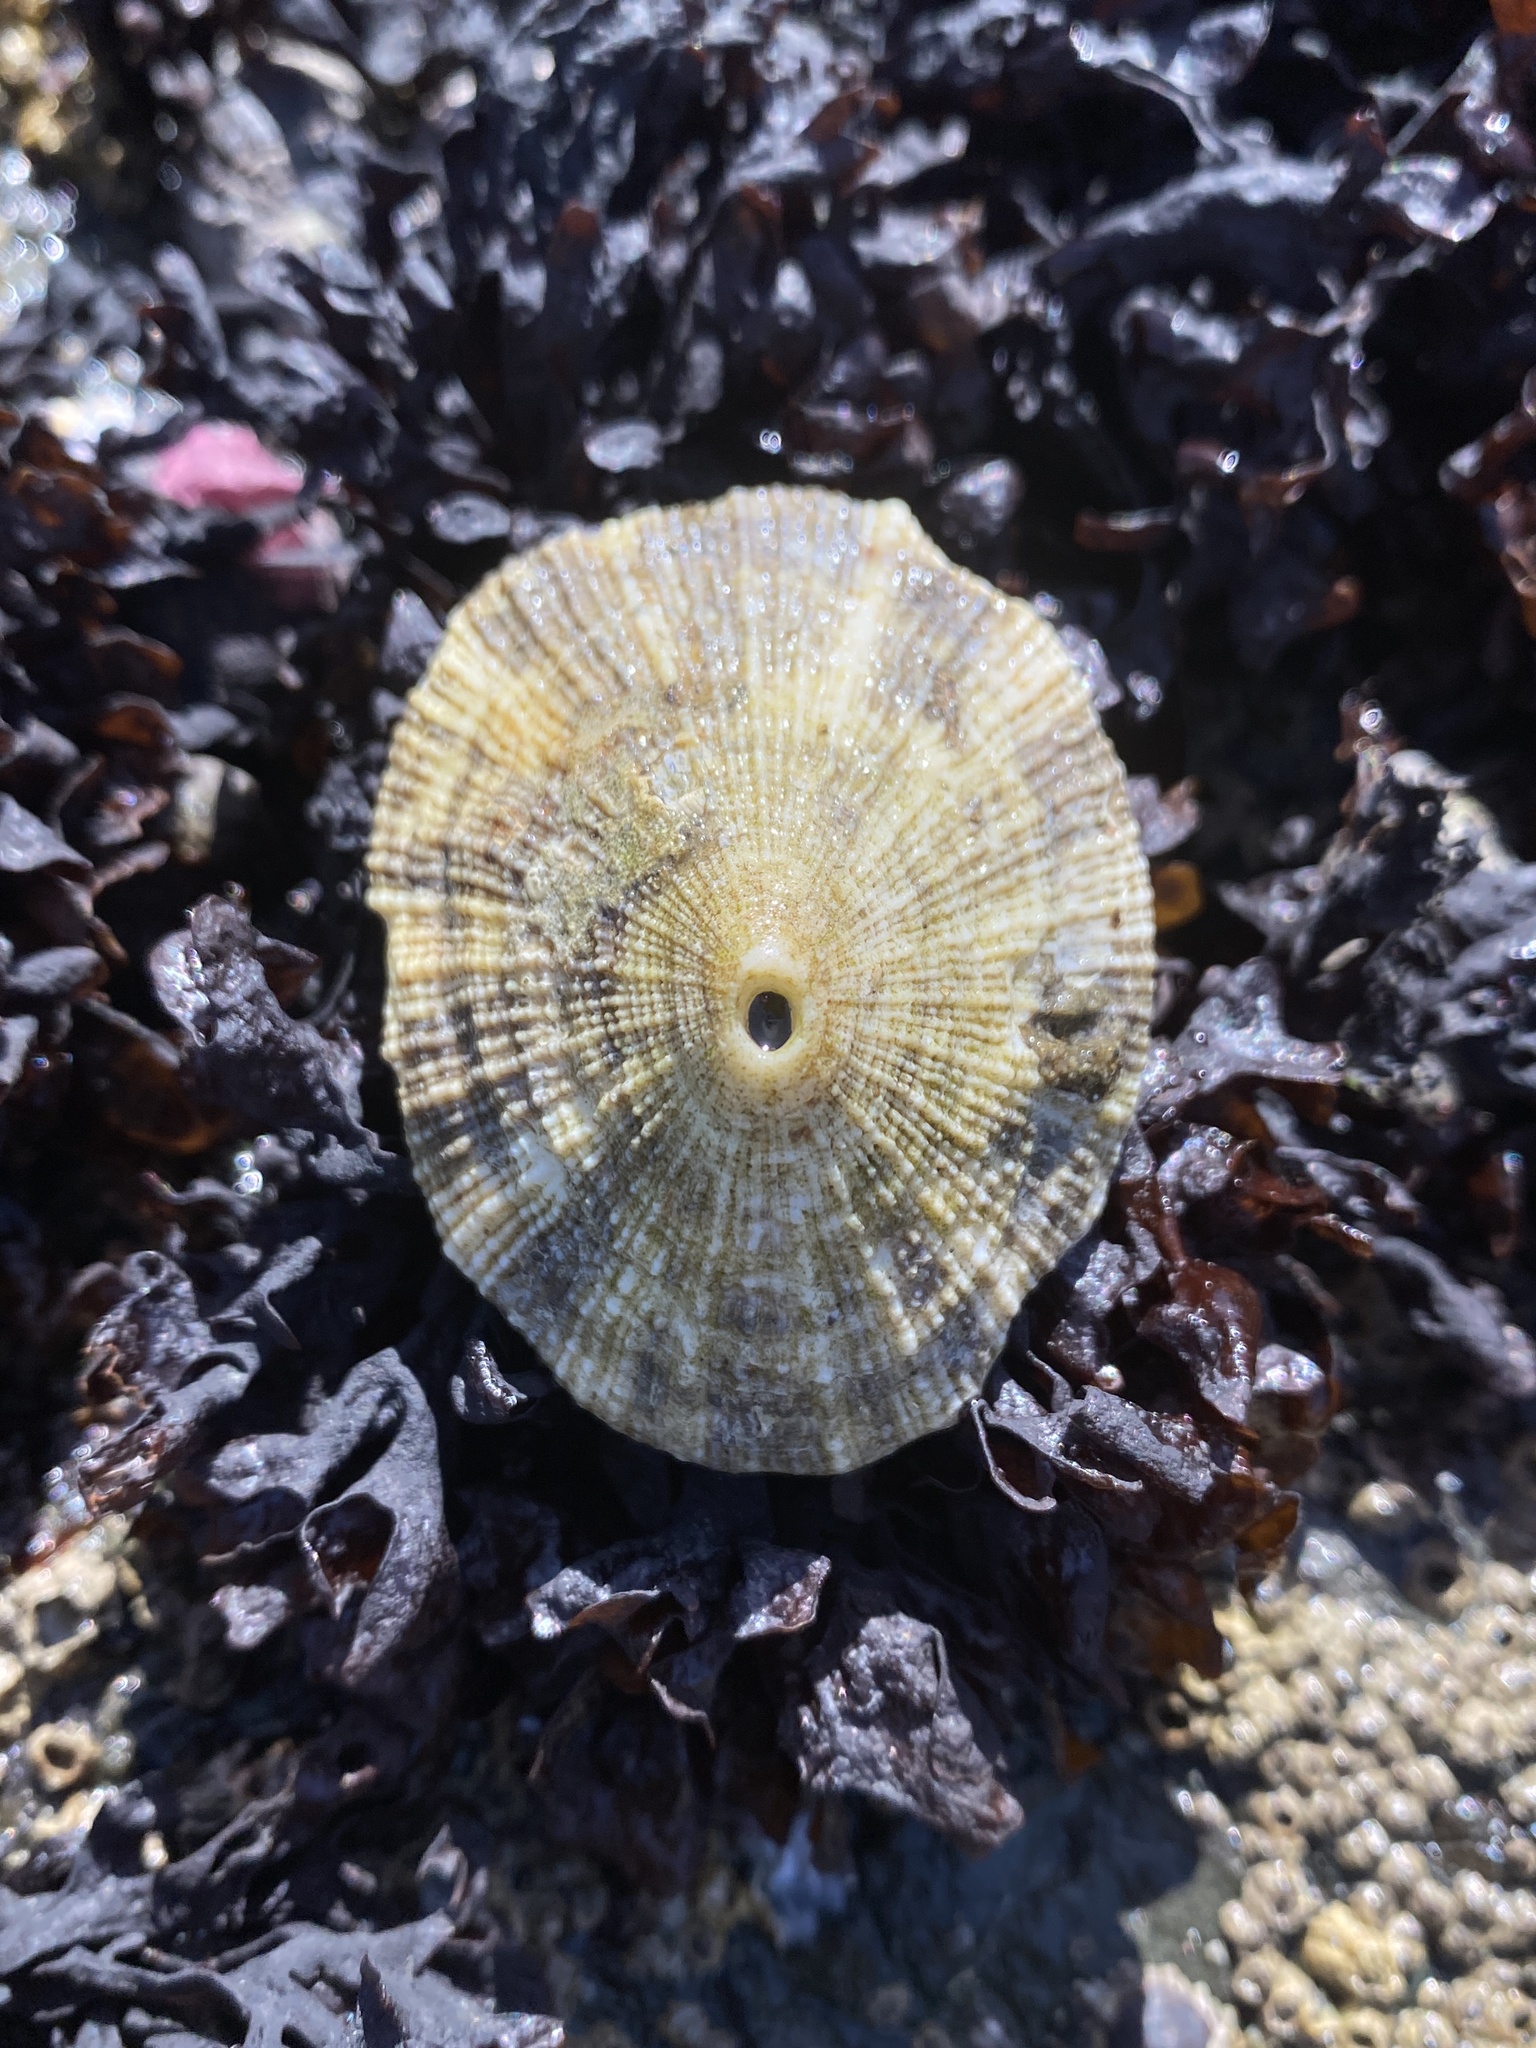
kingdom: Animalia
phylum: Mollusca
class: Gastropoda
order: Lepetellida
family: Fissurellidae
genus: Diodora
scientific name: Diodora aspera
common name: Rough keyhole limpet
